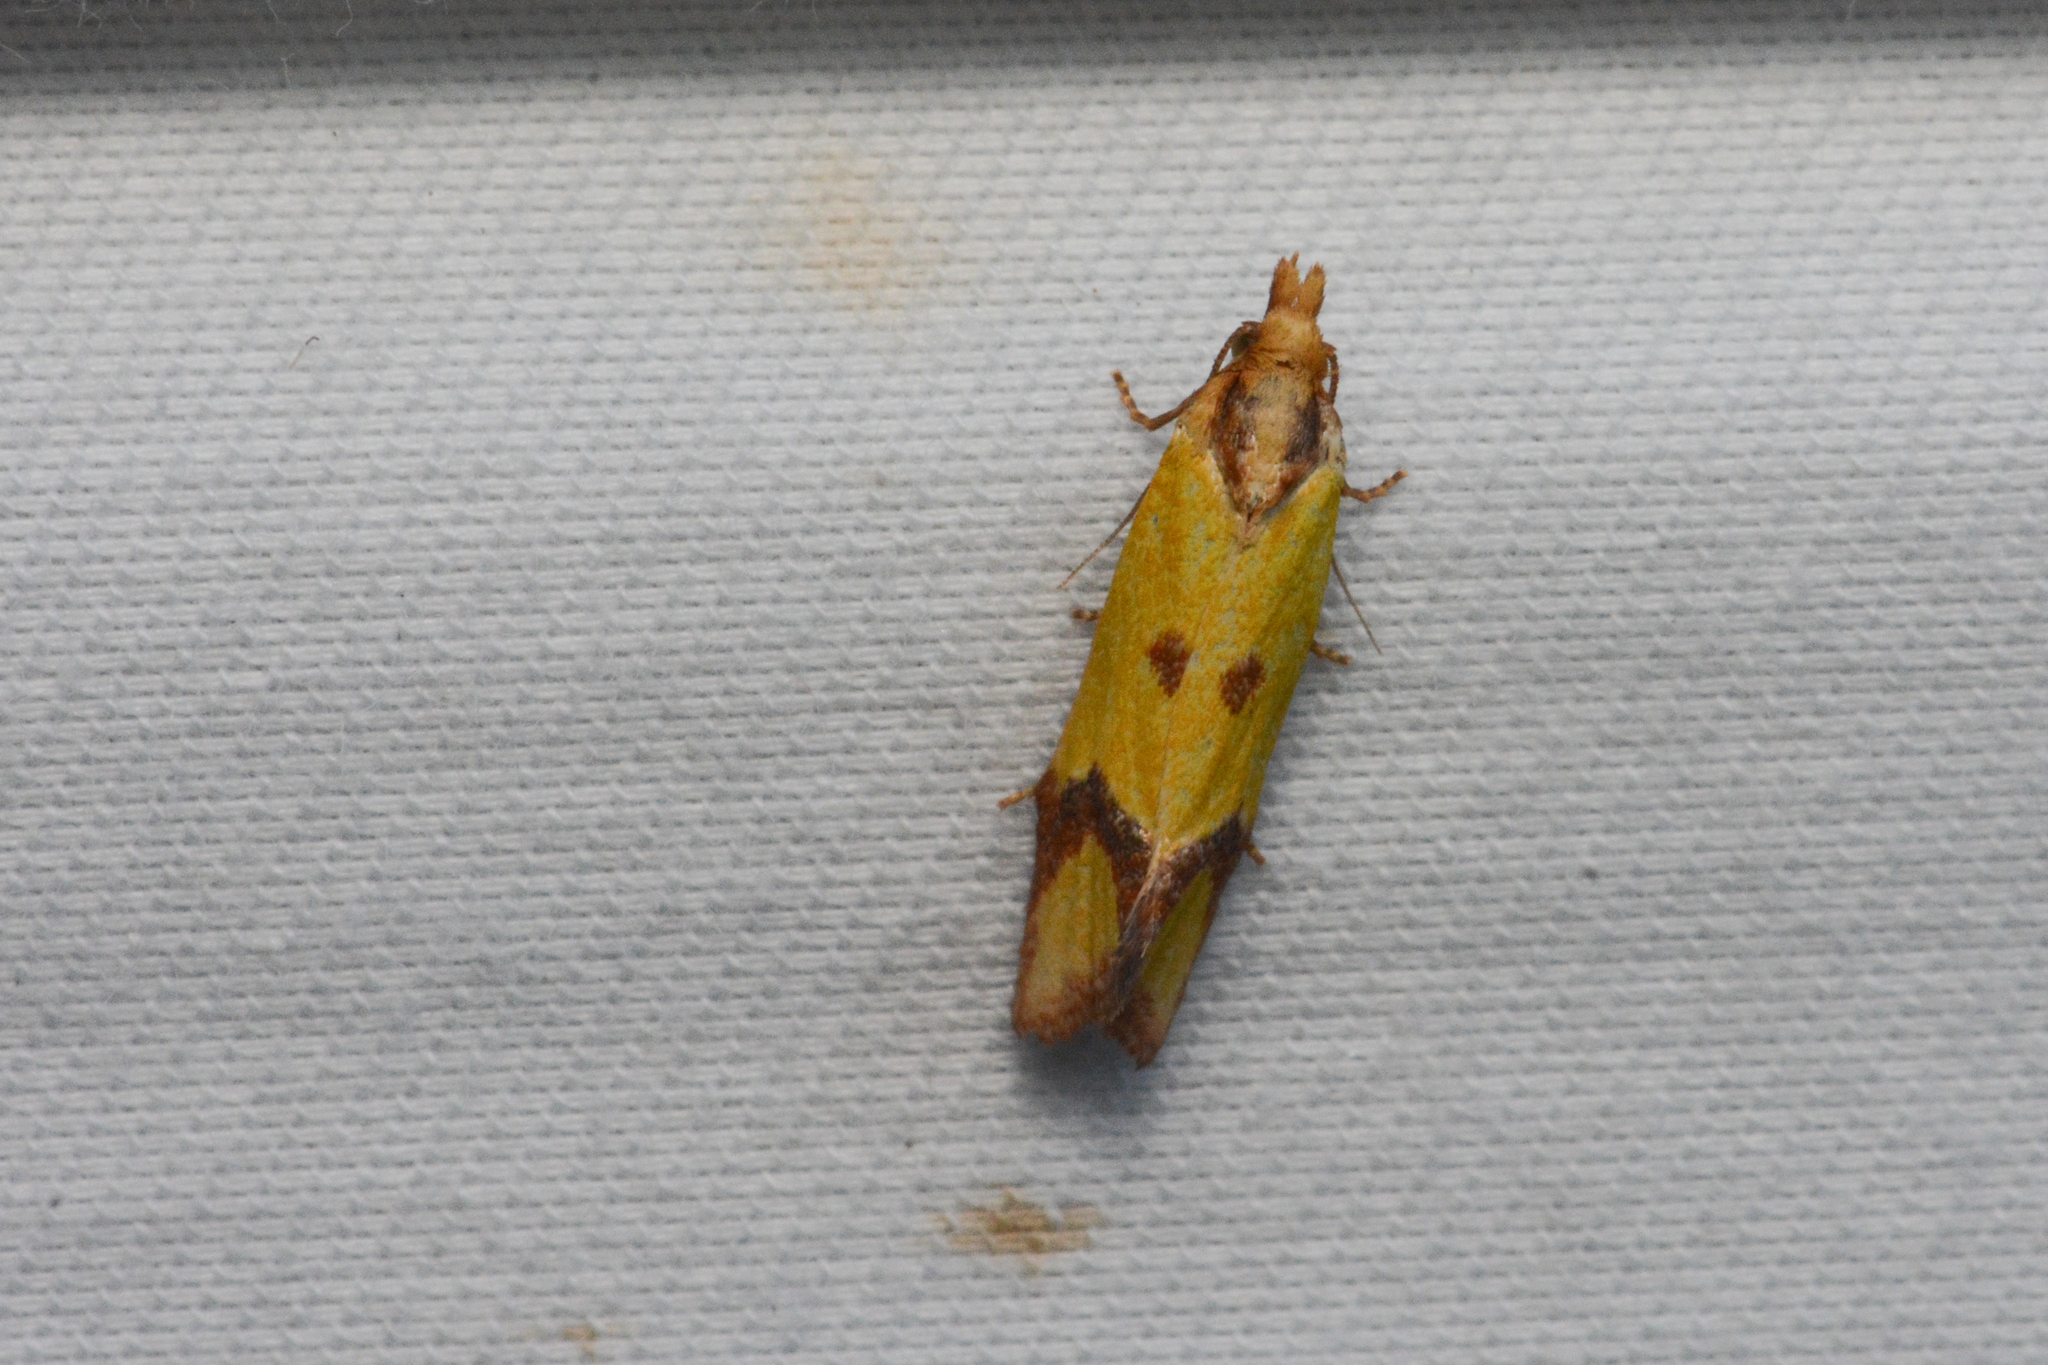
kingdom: Animalia
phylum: Arthropoda
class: Insecta
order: Lepidoptera
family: Tortricidae
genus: Agapeta
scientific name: Agapeta zoegana
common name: Sulfur knapweed root moth
